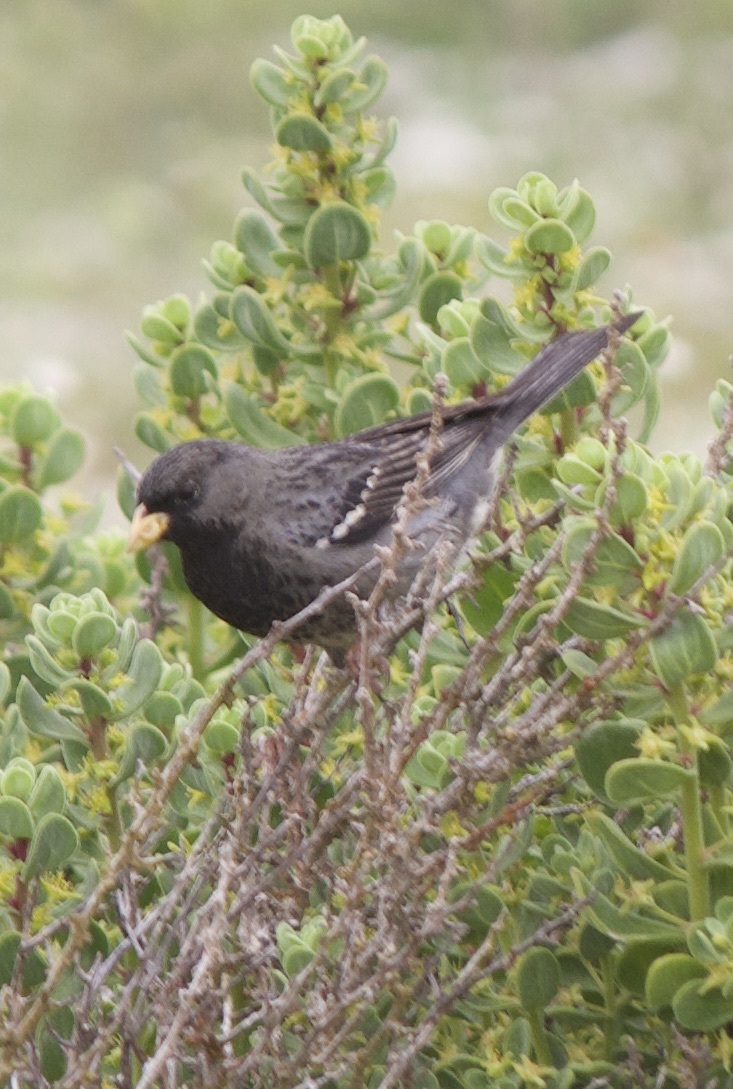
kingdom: Animalia
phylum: Chordata
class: Aves
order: Passeriformes
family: Thraupidae
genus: Rhopospina
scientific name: Rhopospina fruticeti
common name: Mourning sierra finch
